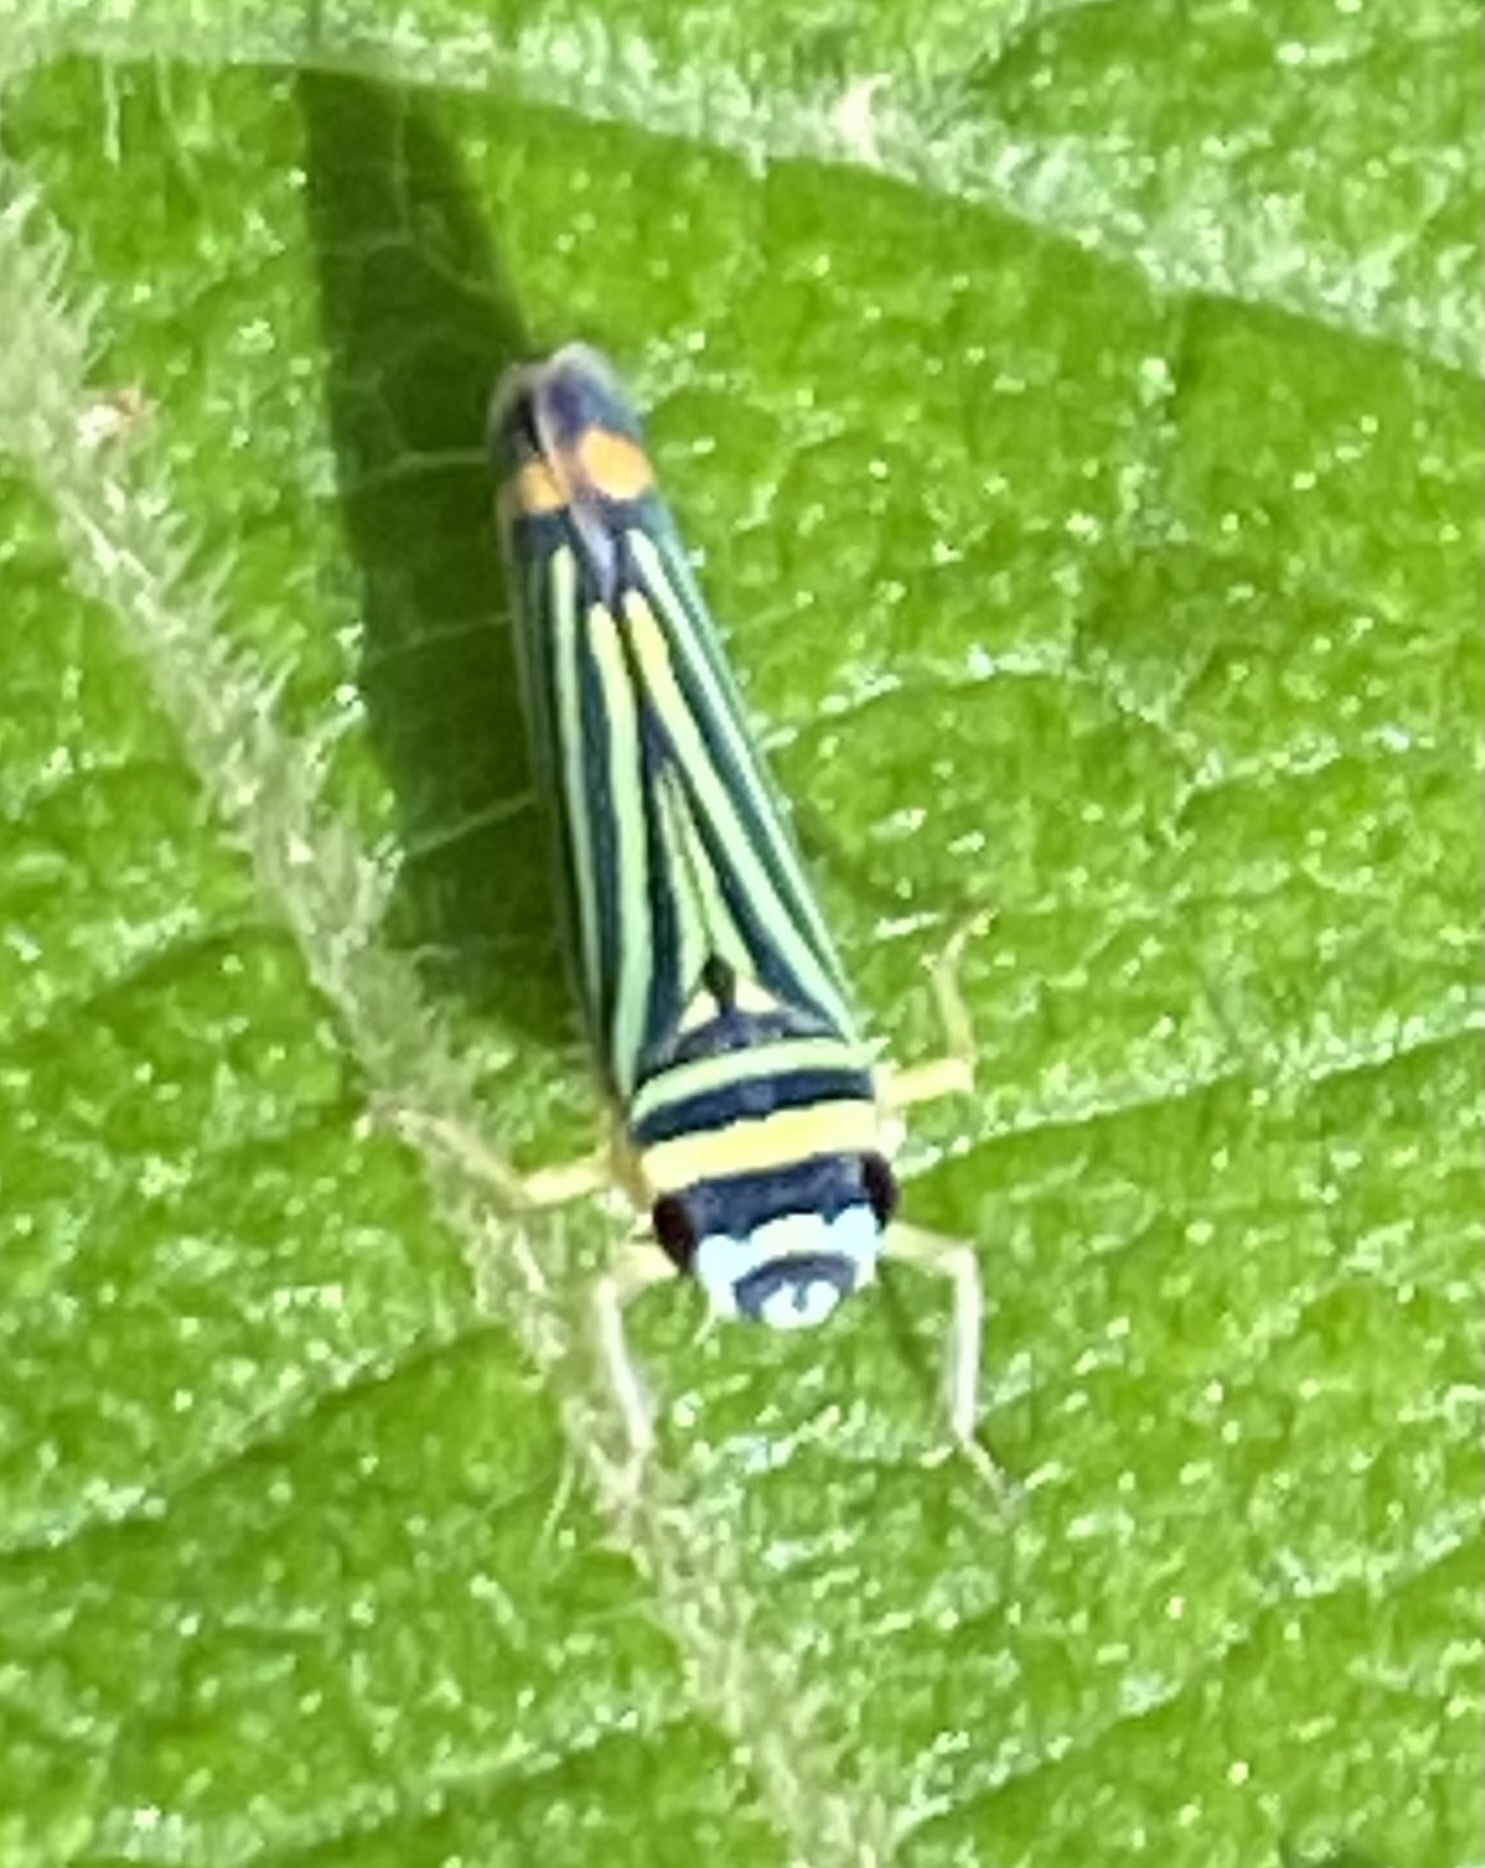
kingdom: Animalia
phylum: Arthropoda
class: Insecta
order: Hemiptera
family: Cicadellidae
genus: Subrasaca
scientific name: Subrasaca flavolineata
